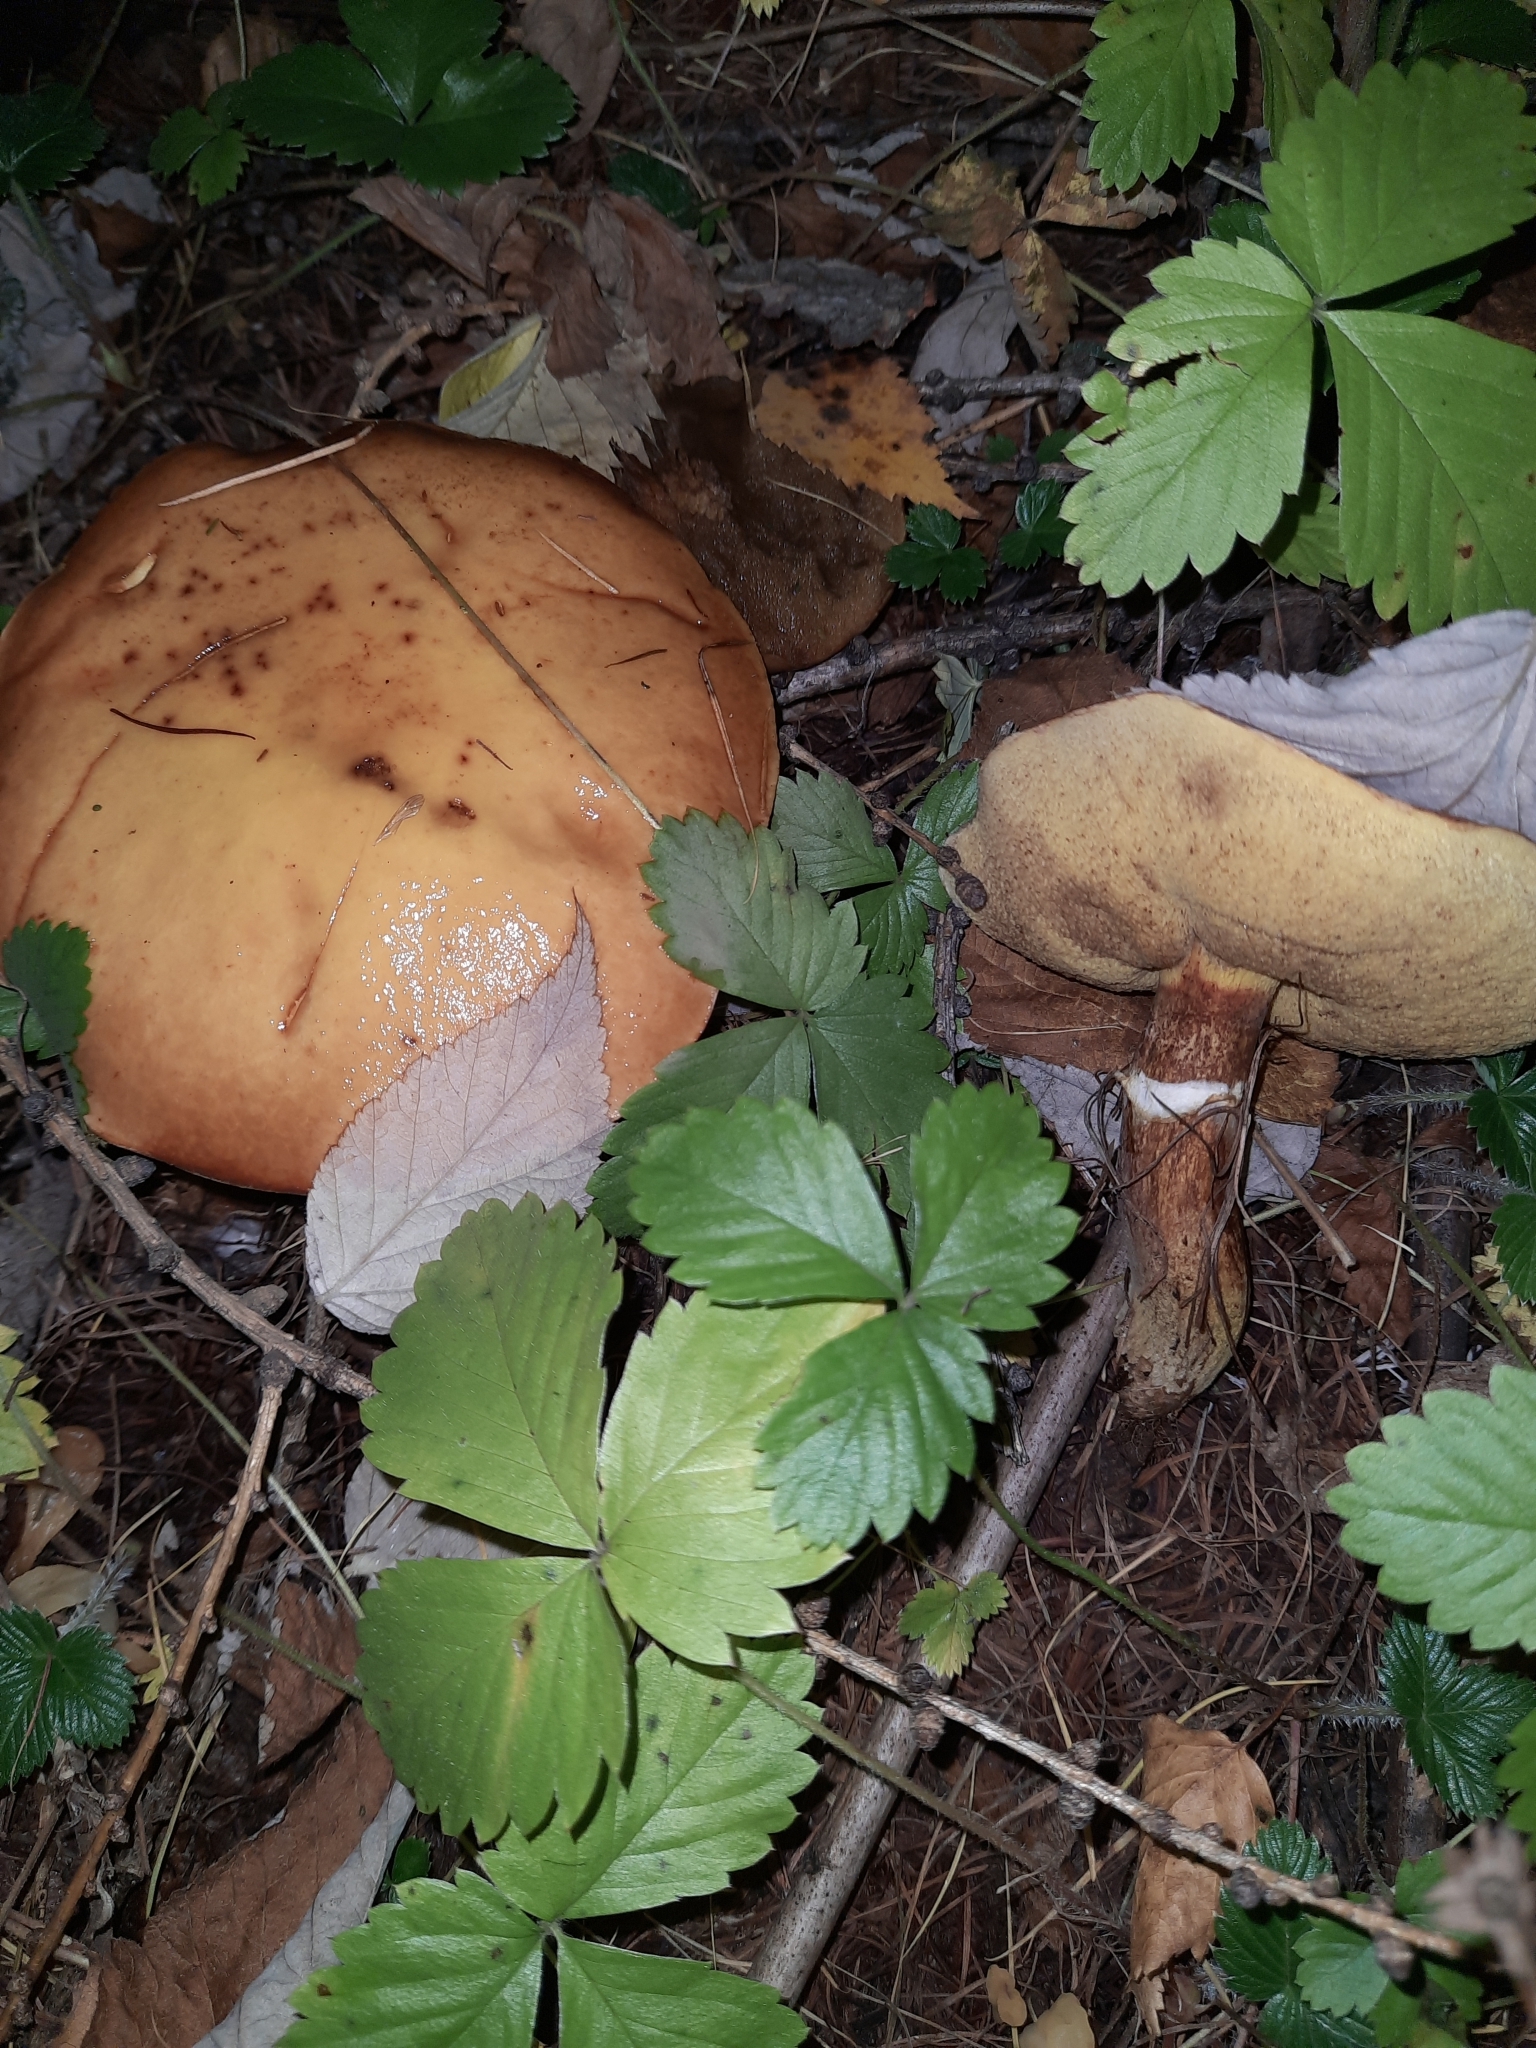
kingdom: Fungi
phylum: Basidiomycota
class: Agaricomycetes
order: Boletales
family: Suillaceae
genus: Suillus
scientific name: Suillus grevillei
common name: Larch bolete
